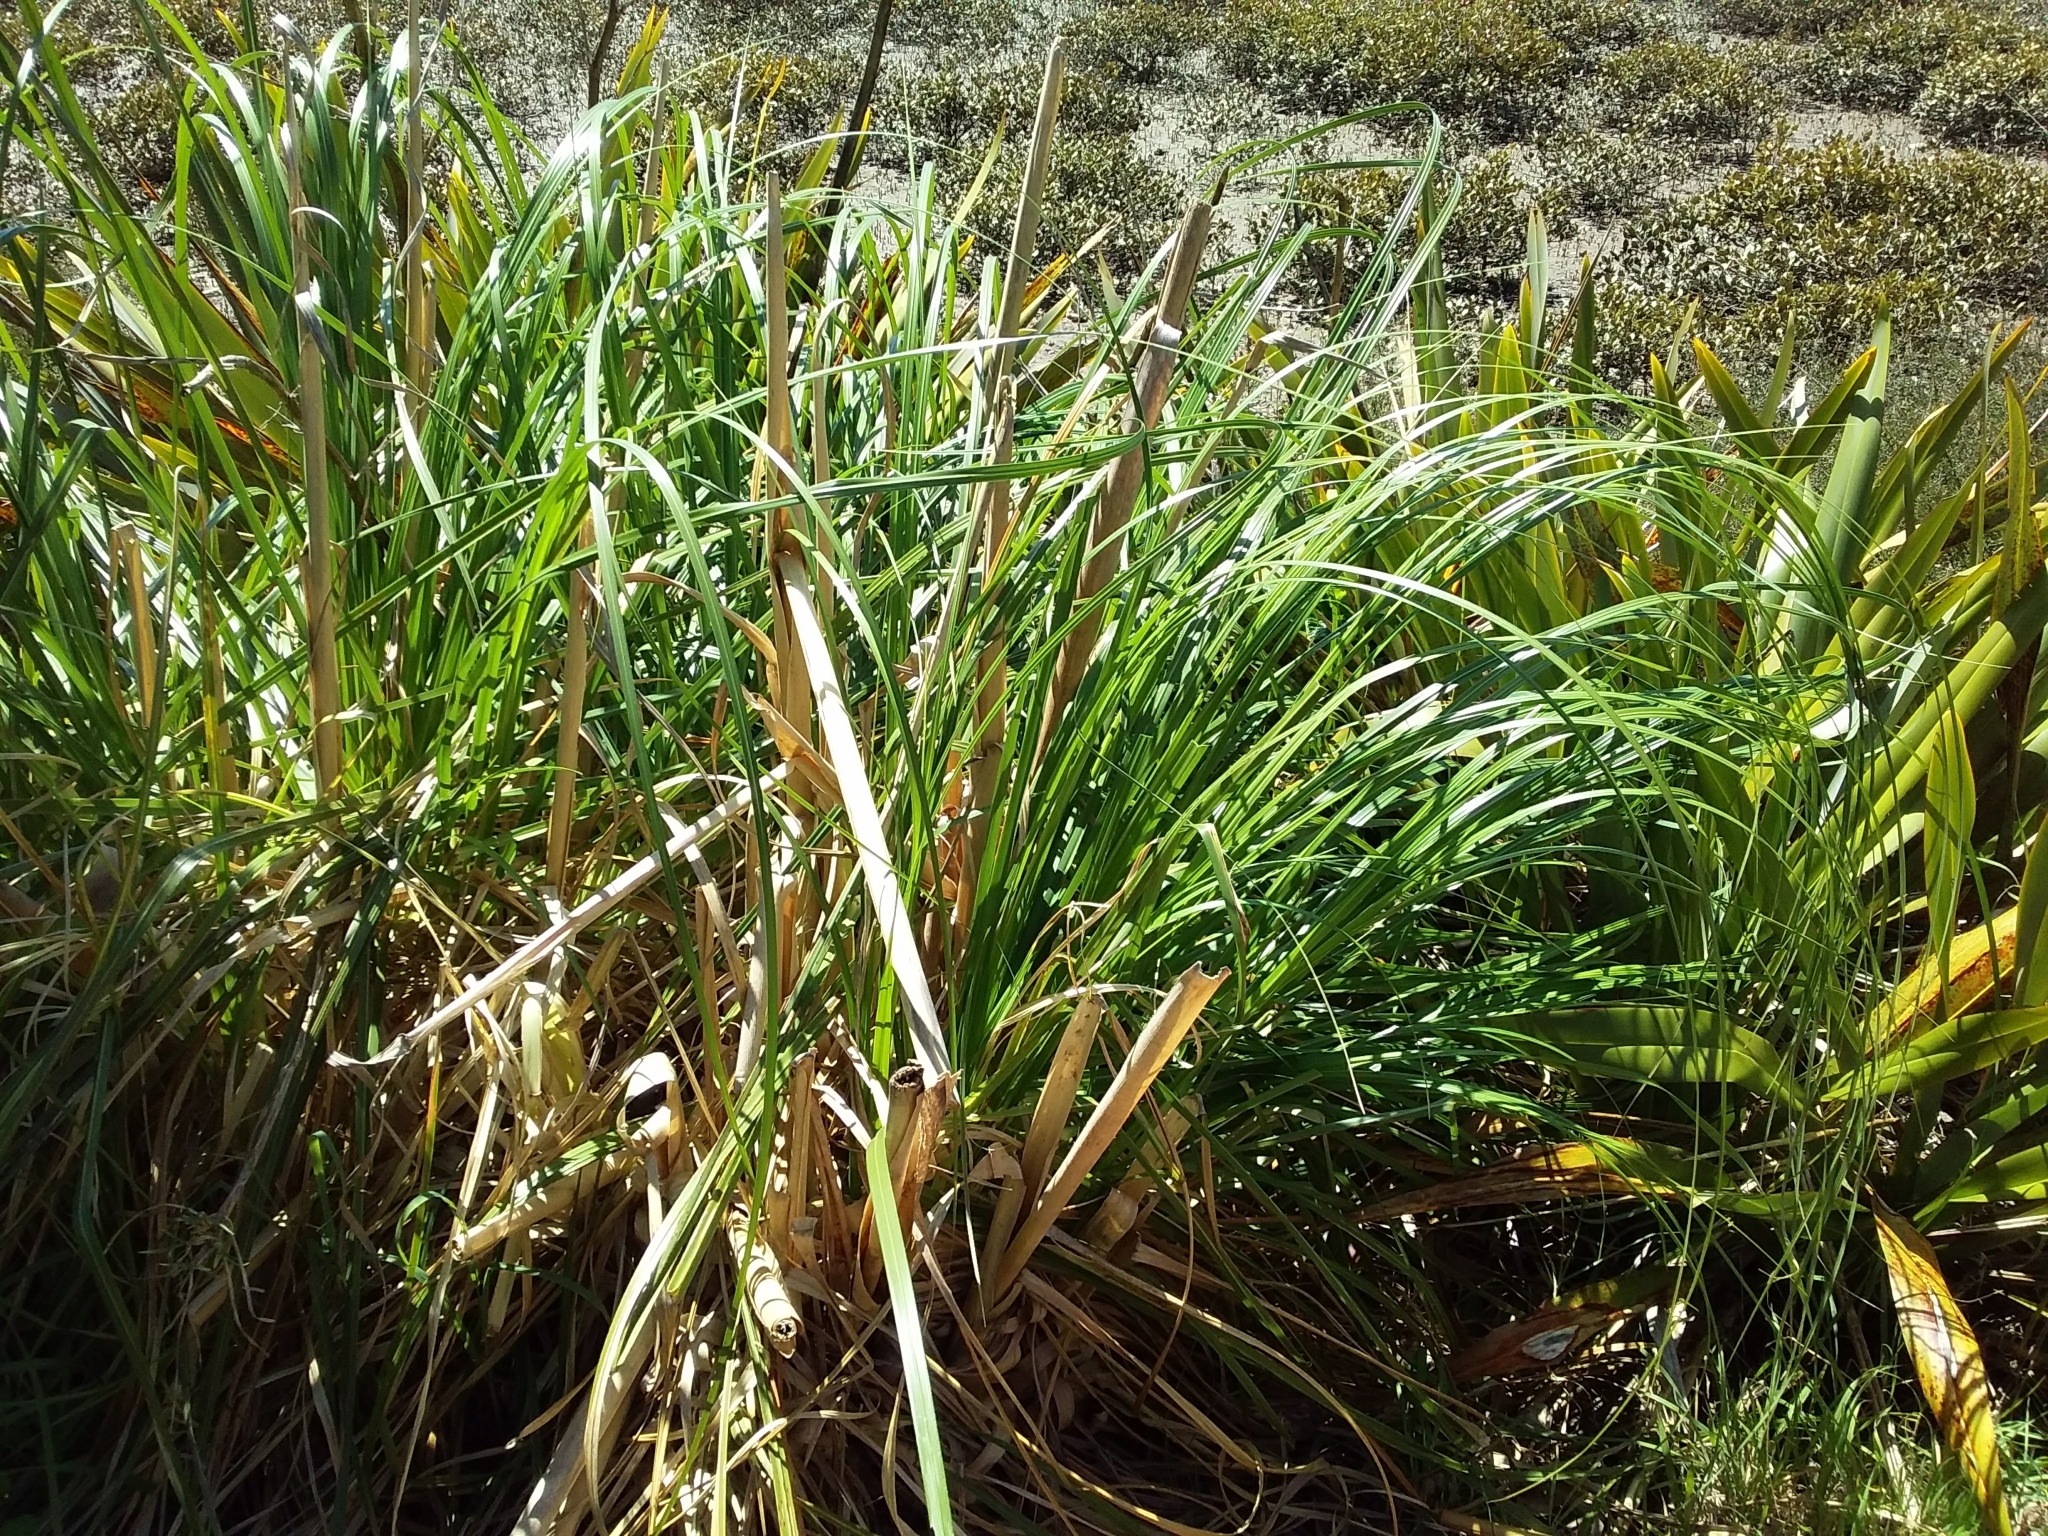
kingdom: Plantae
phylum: Tracheophyta
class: Liliopsida
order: Poales
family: Poaceae
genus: Cortaderia
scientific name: Cortaderia selloana
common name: Uruguayan pampas grass
